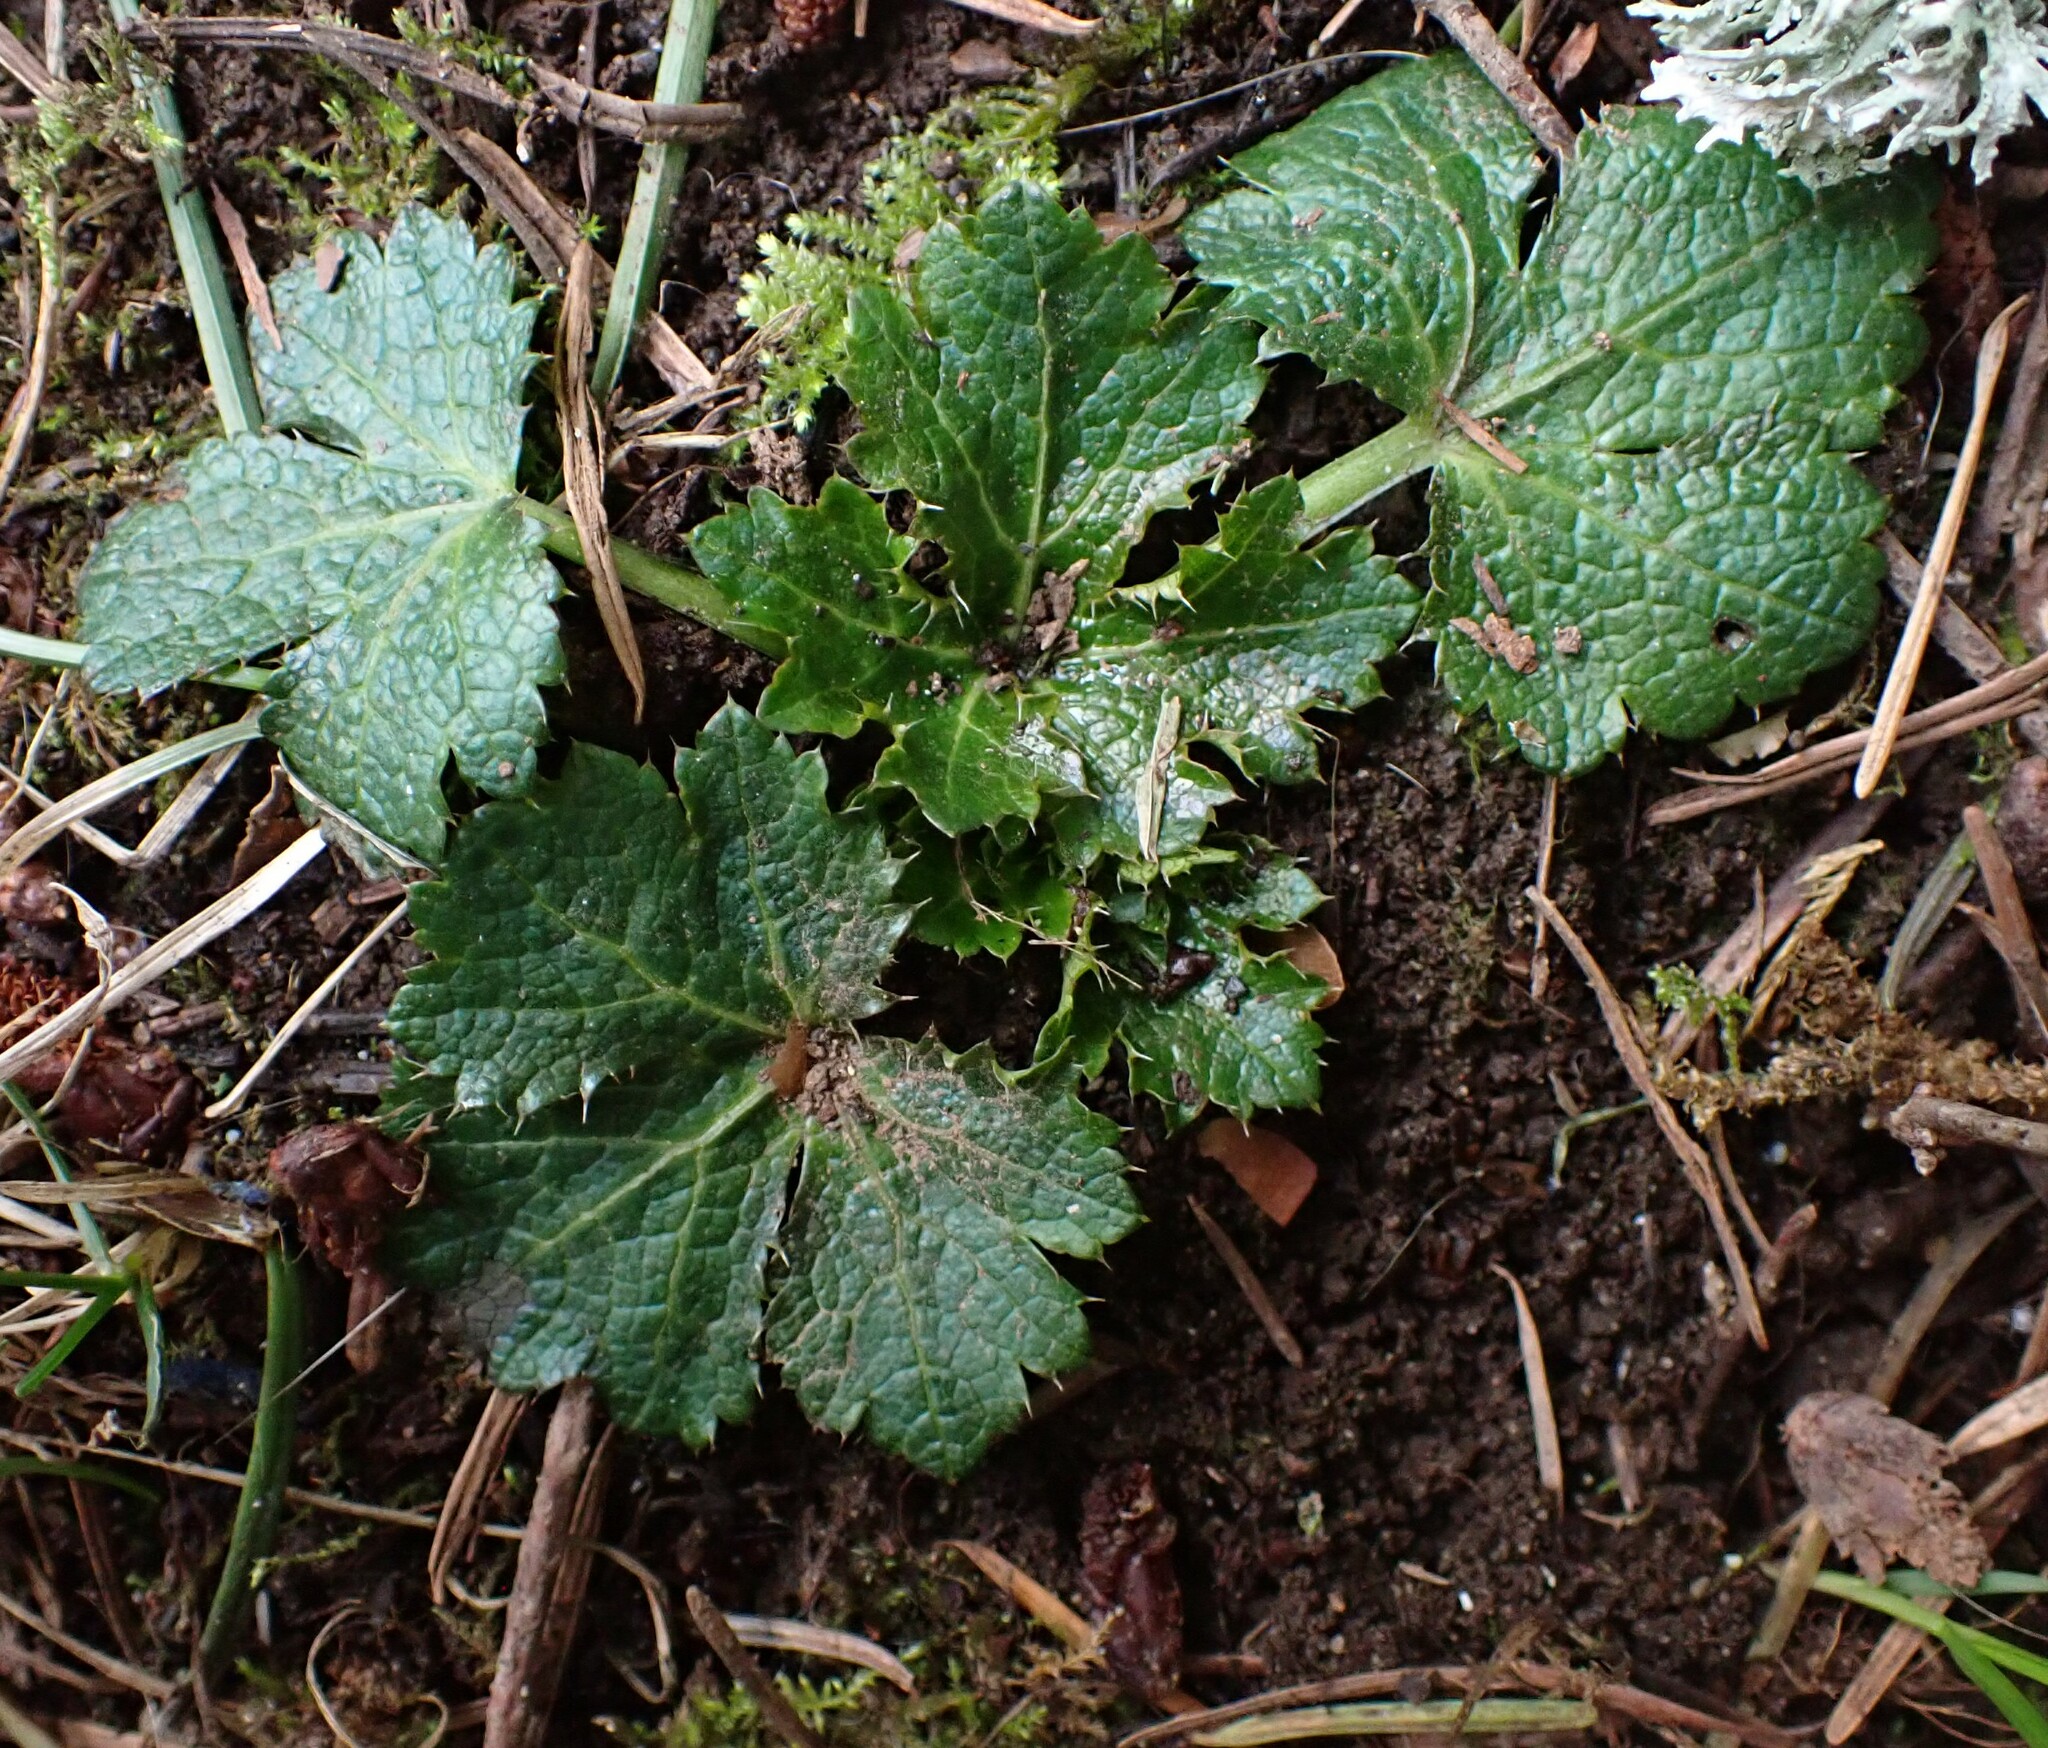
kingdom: Plantae
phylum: Tracheophyta
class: Magnoliopsida
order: Apiales
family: Apiaceae
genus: Sanicula
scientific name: Sanicula crassicaulis
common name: Western snakeroot
